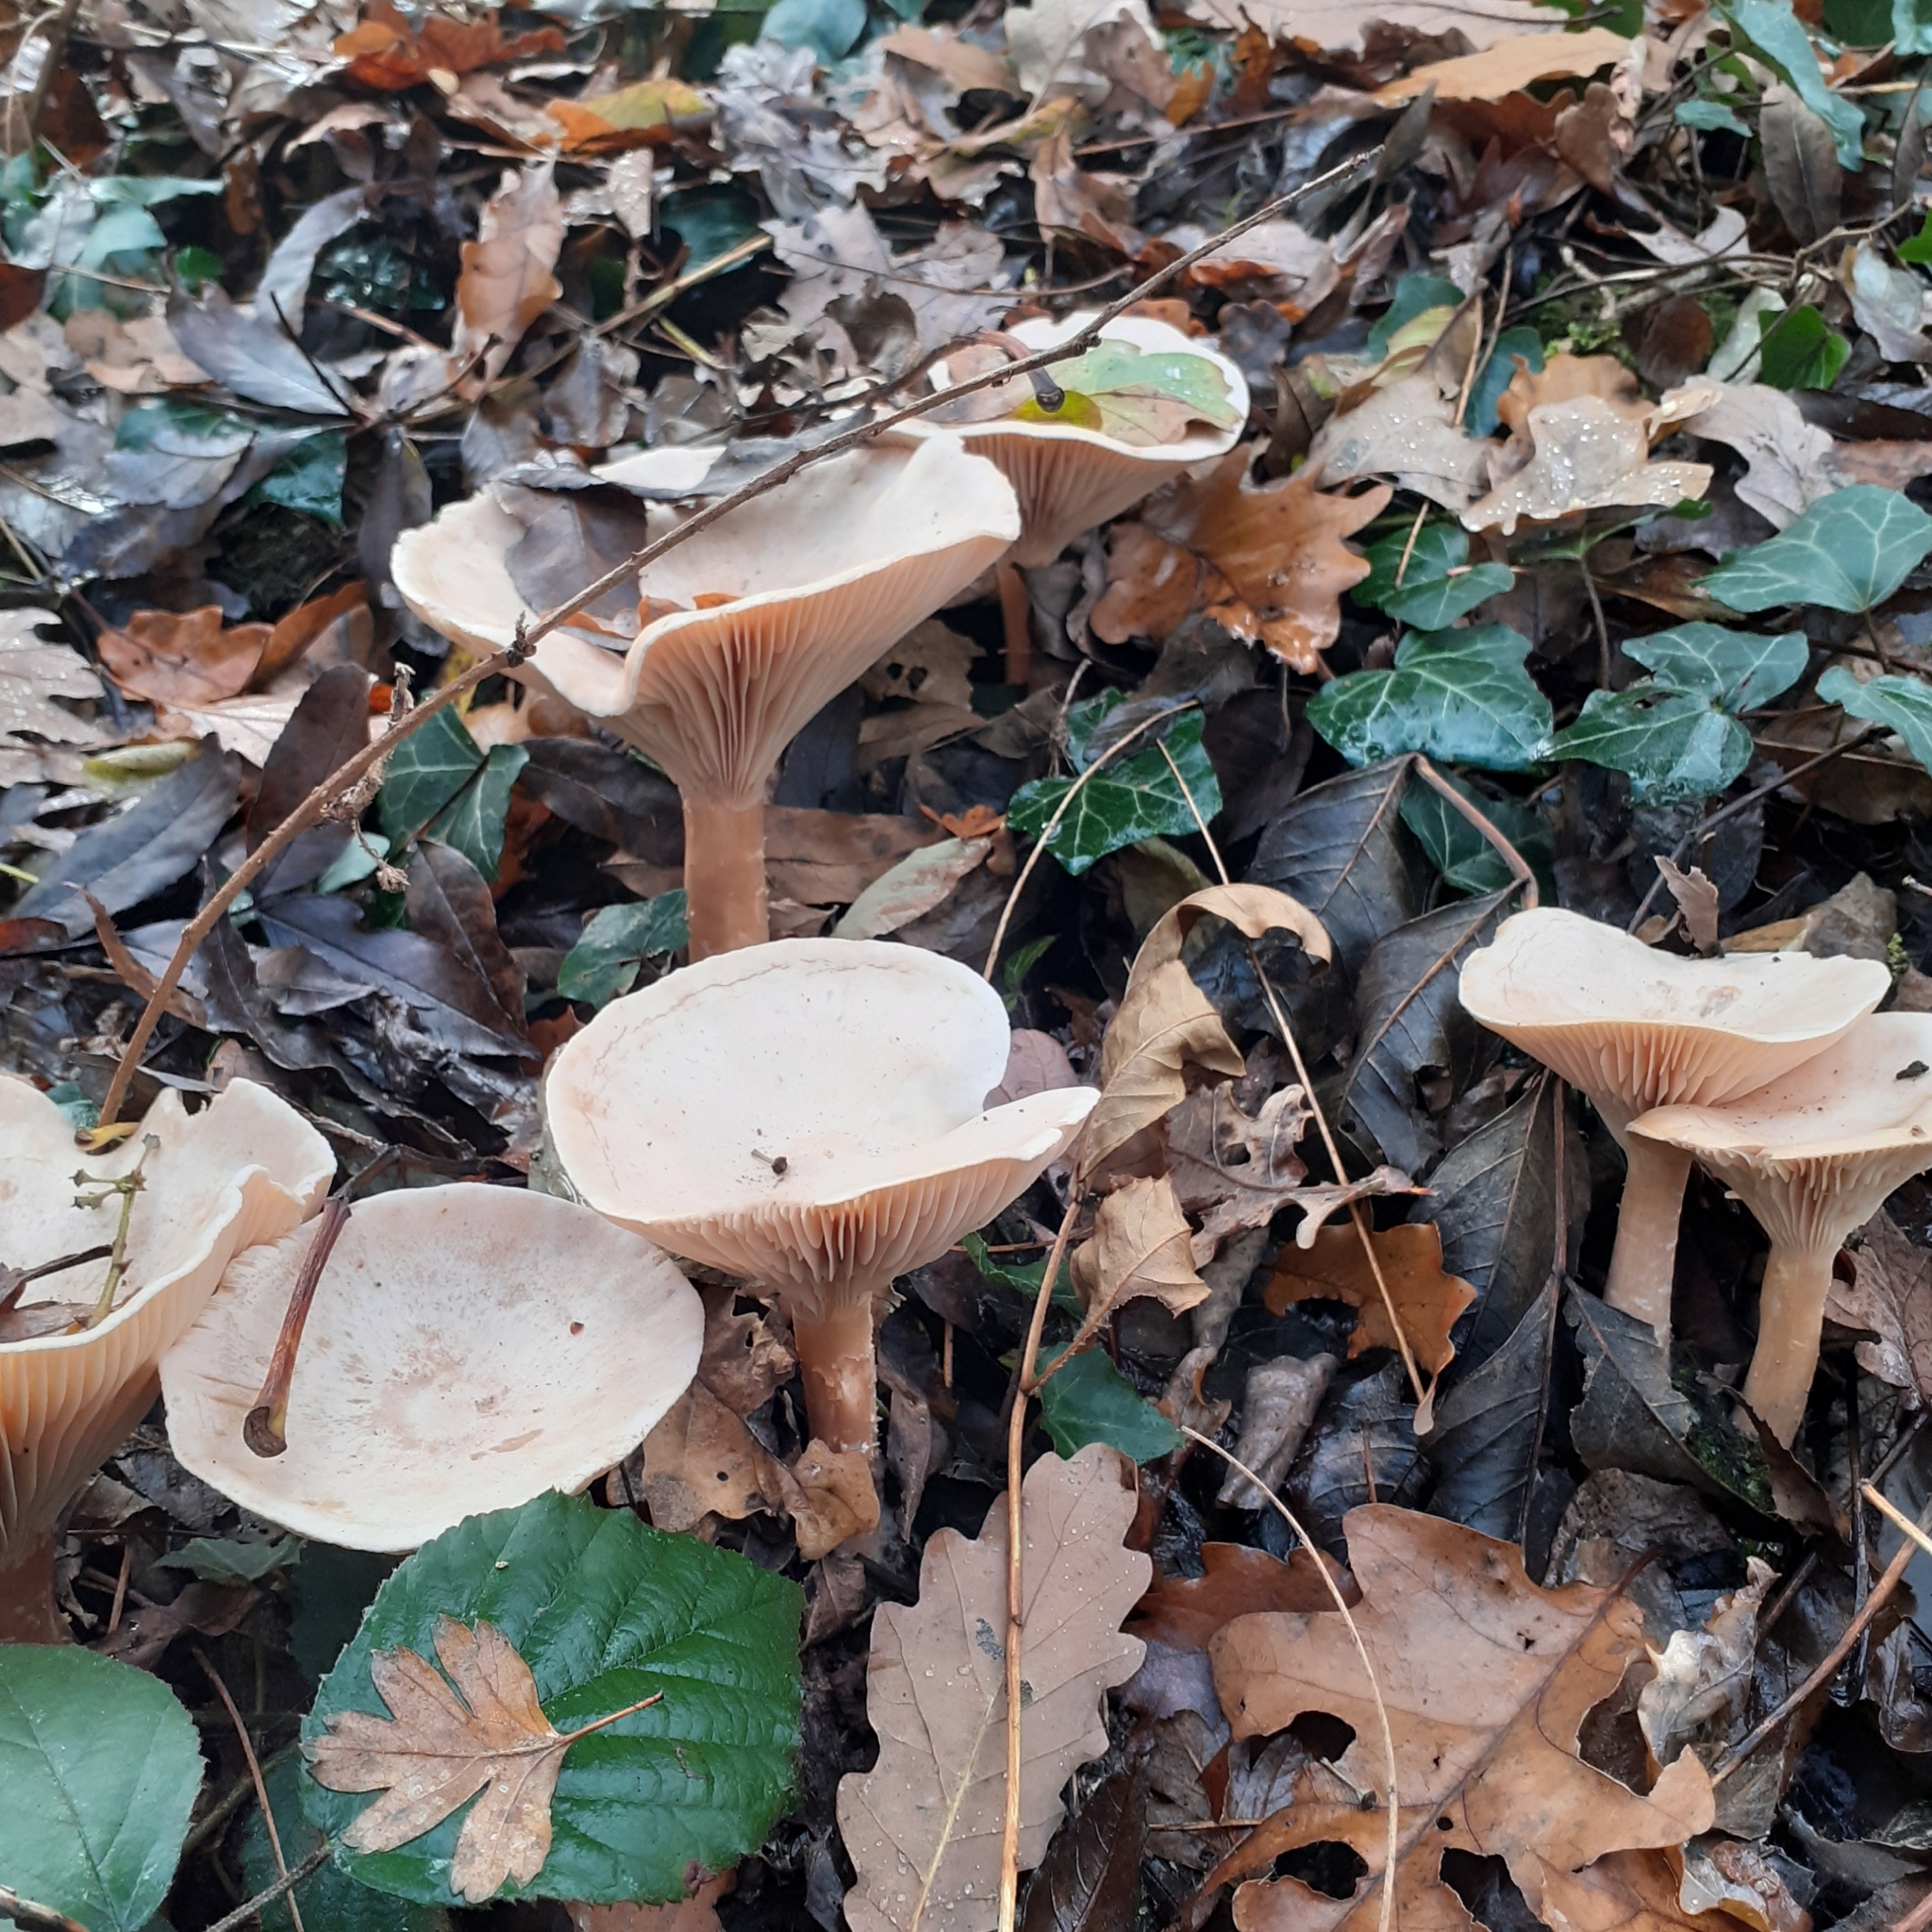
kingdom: Fungi
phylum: Basidiomycota
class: Agaricomycetes
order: Agaricales
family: Tricholomataceae
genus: Infundibulicybe
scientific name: Infundibulicybe geotropa
